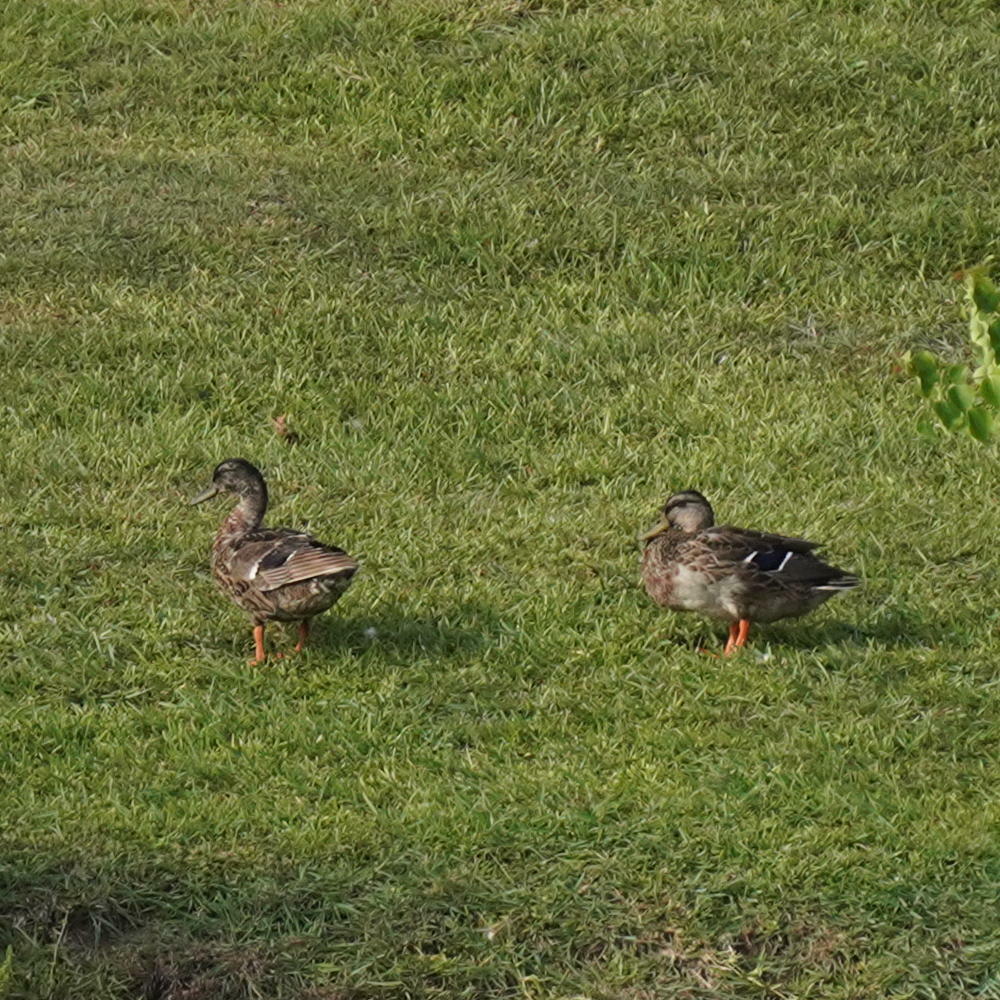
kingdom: Animalia
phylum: Chordata
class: Aves
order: Anseriformes
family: Anatidae
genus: Anas
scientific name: Anas platyrhynchos
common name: Mallard
